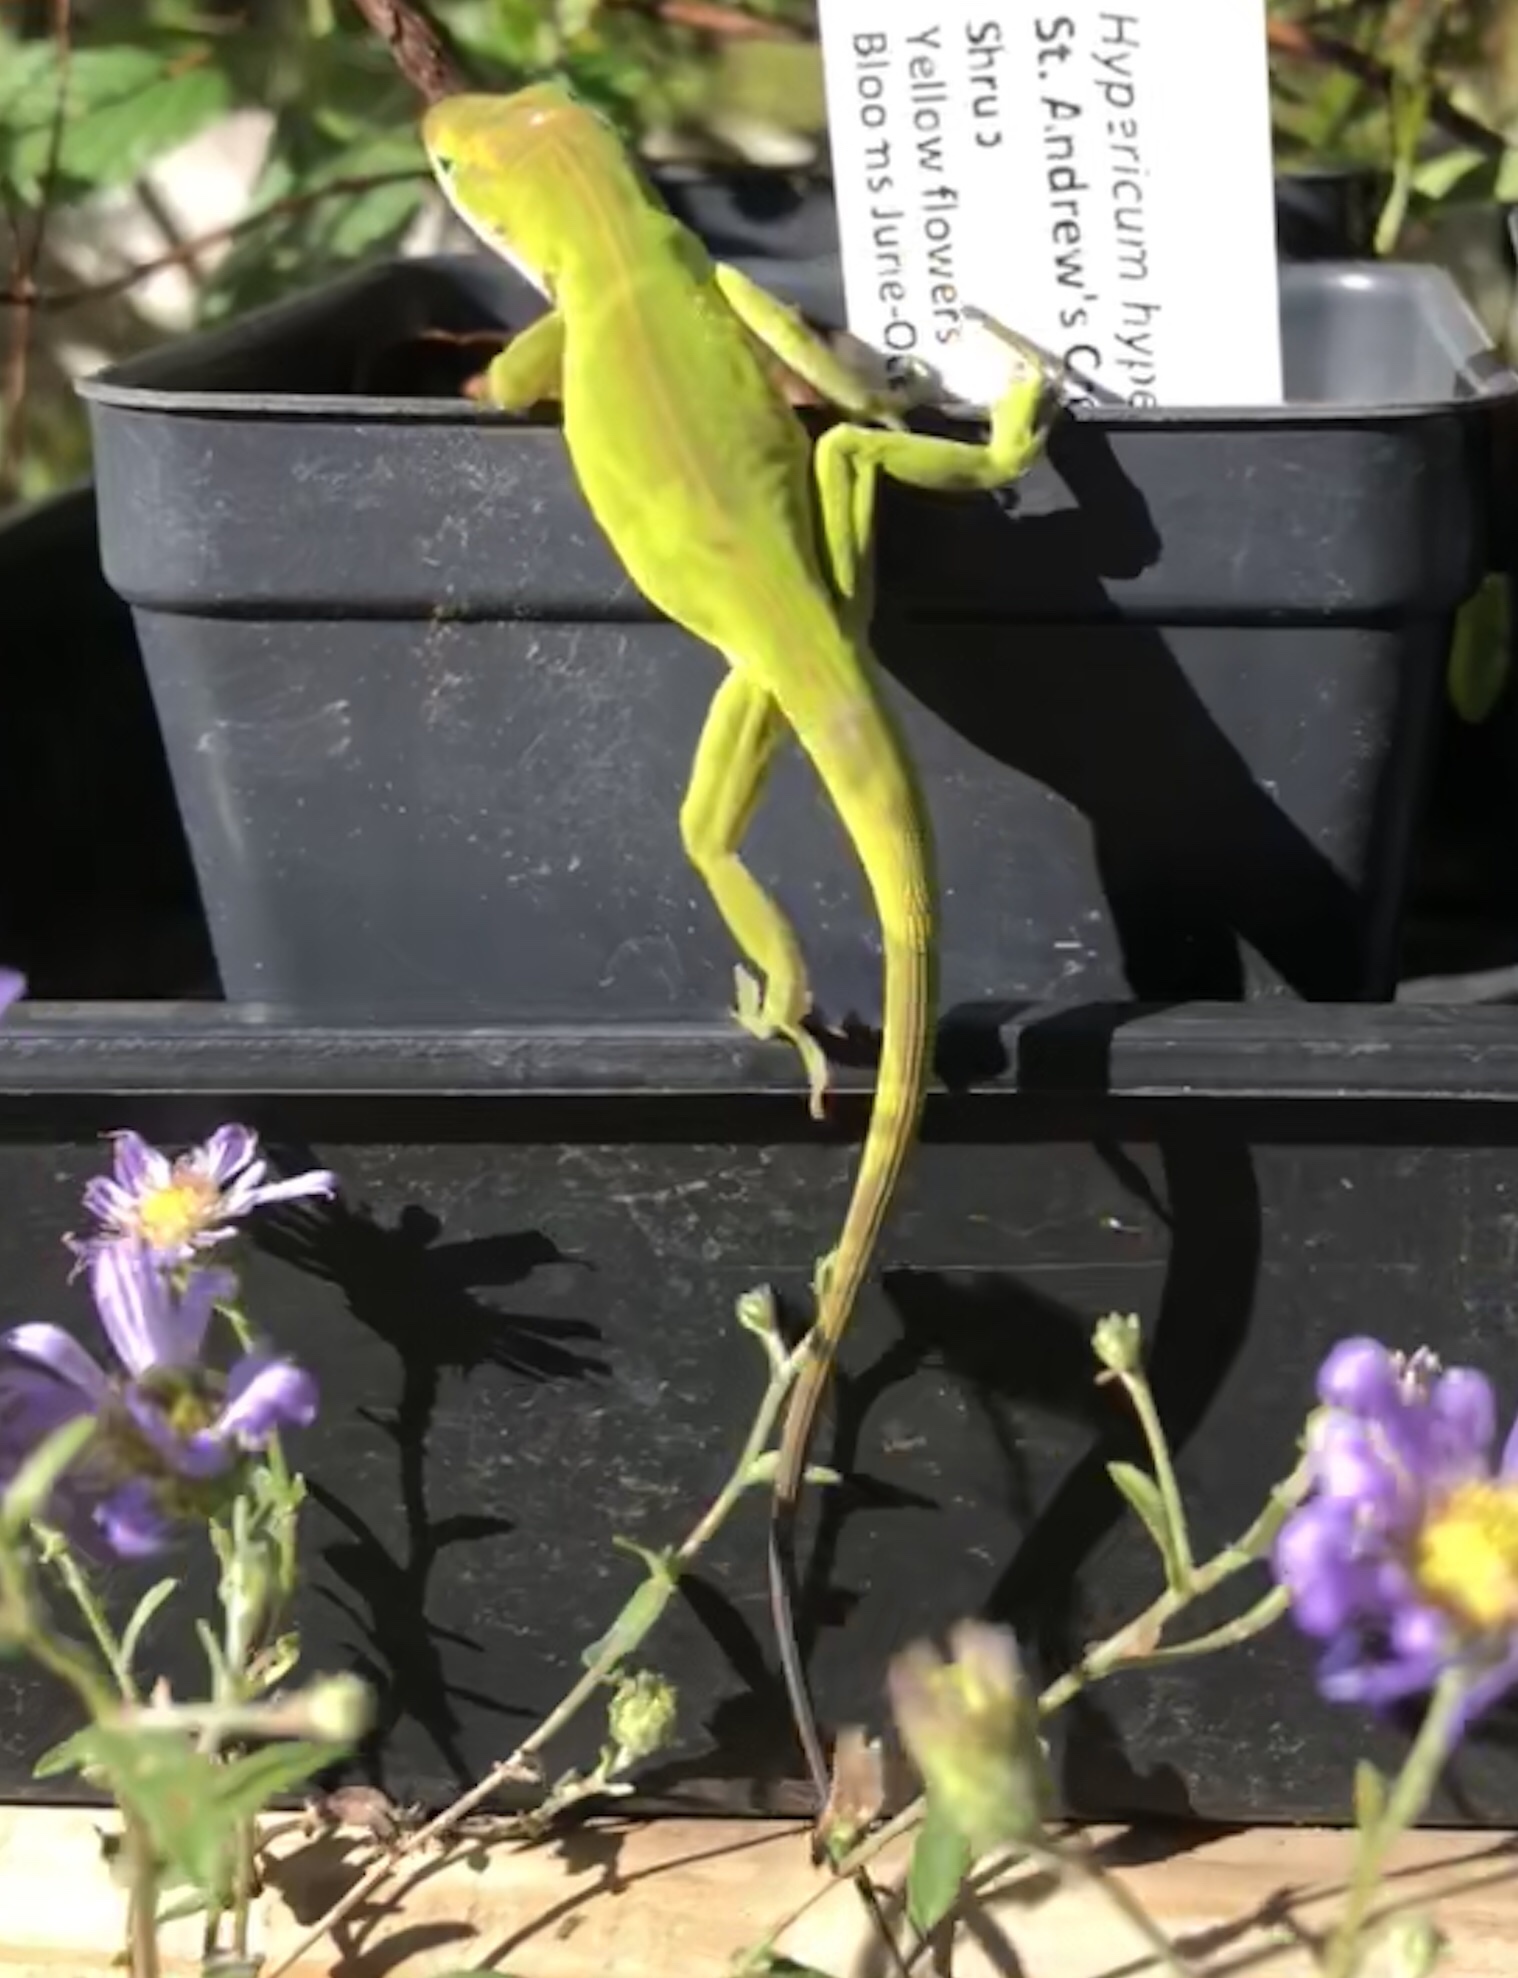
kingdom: Animalia
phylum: Chordata
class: Squamata
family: Dactyloidae
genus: Anolis
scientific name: Anolis carolinensis
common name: Green anole
